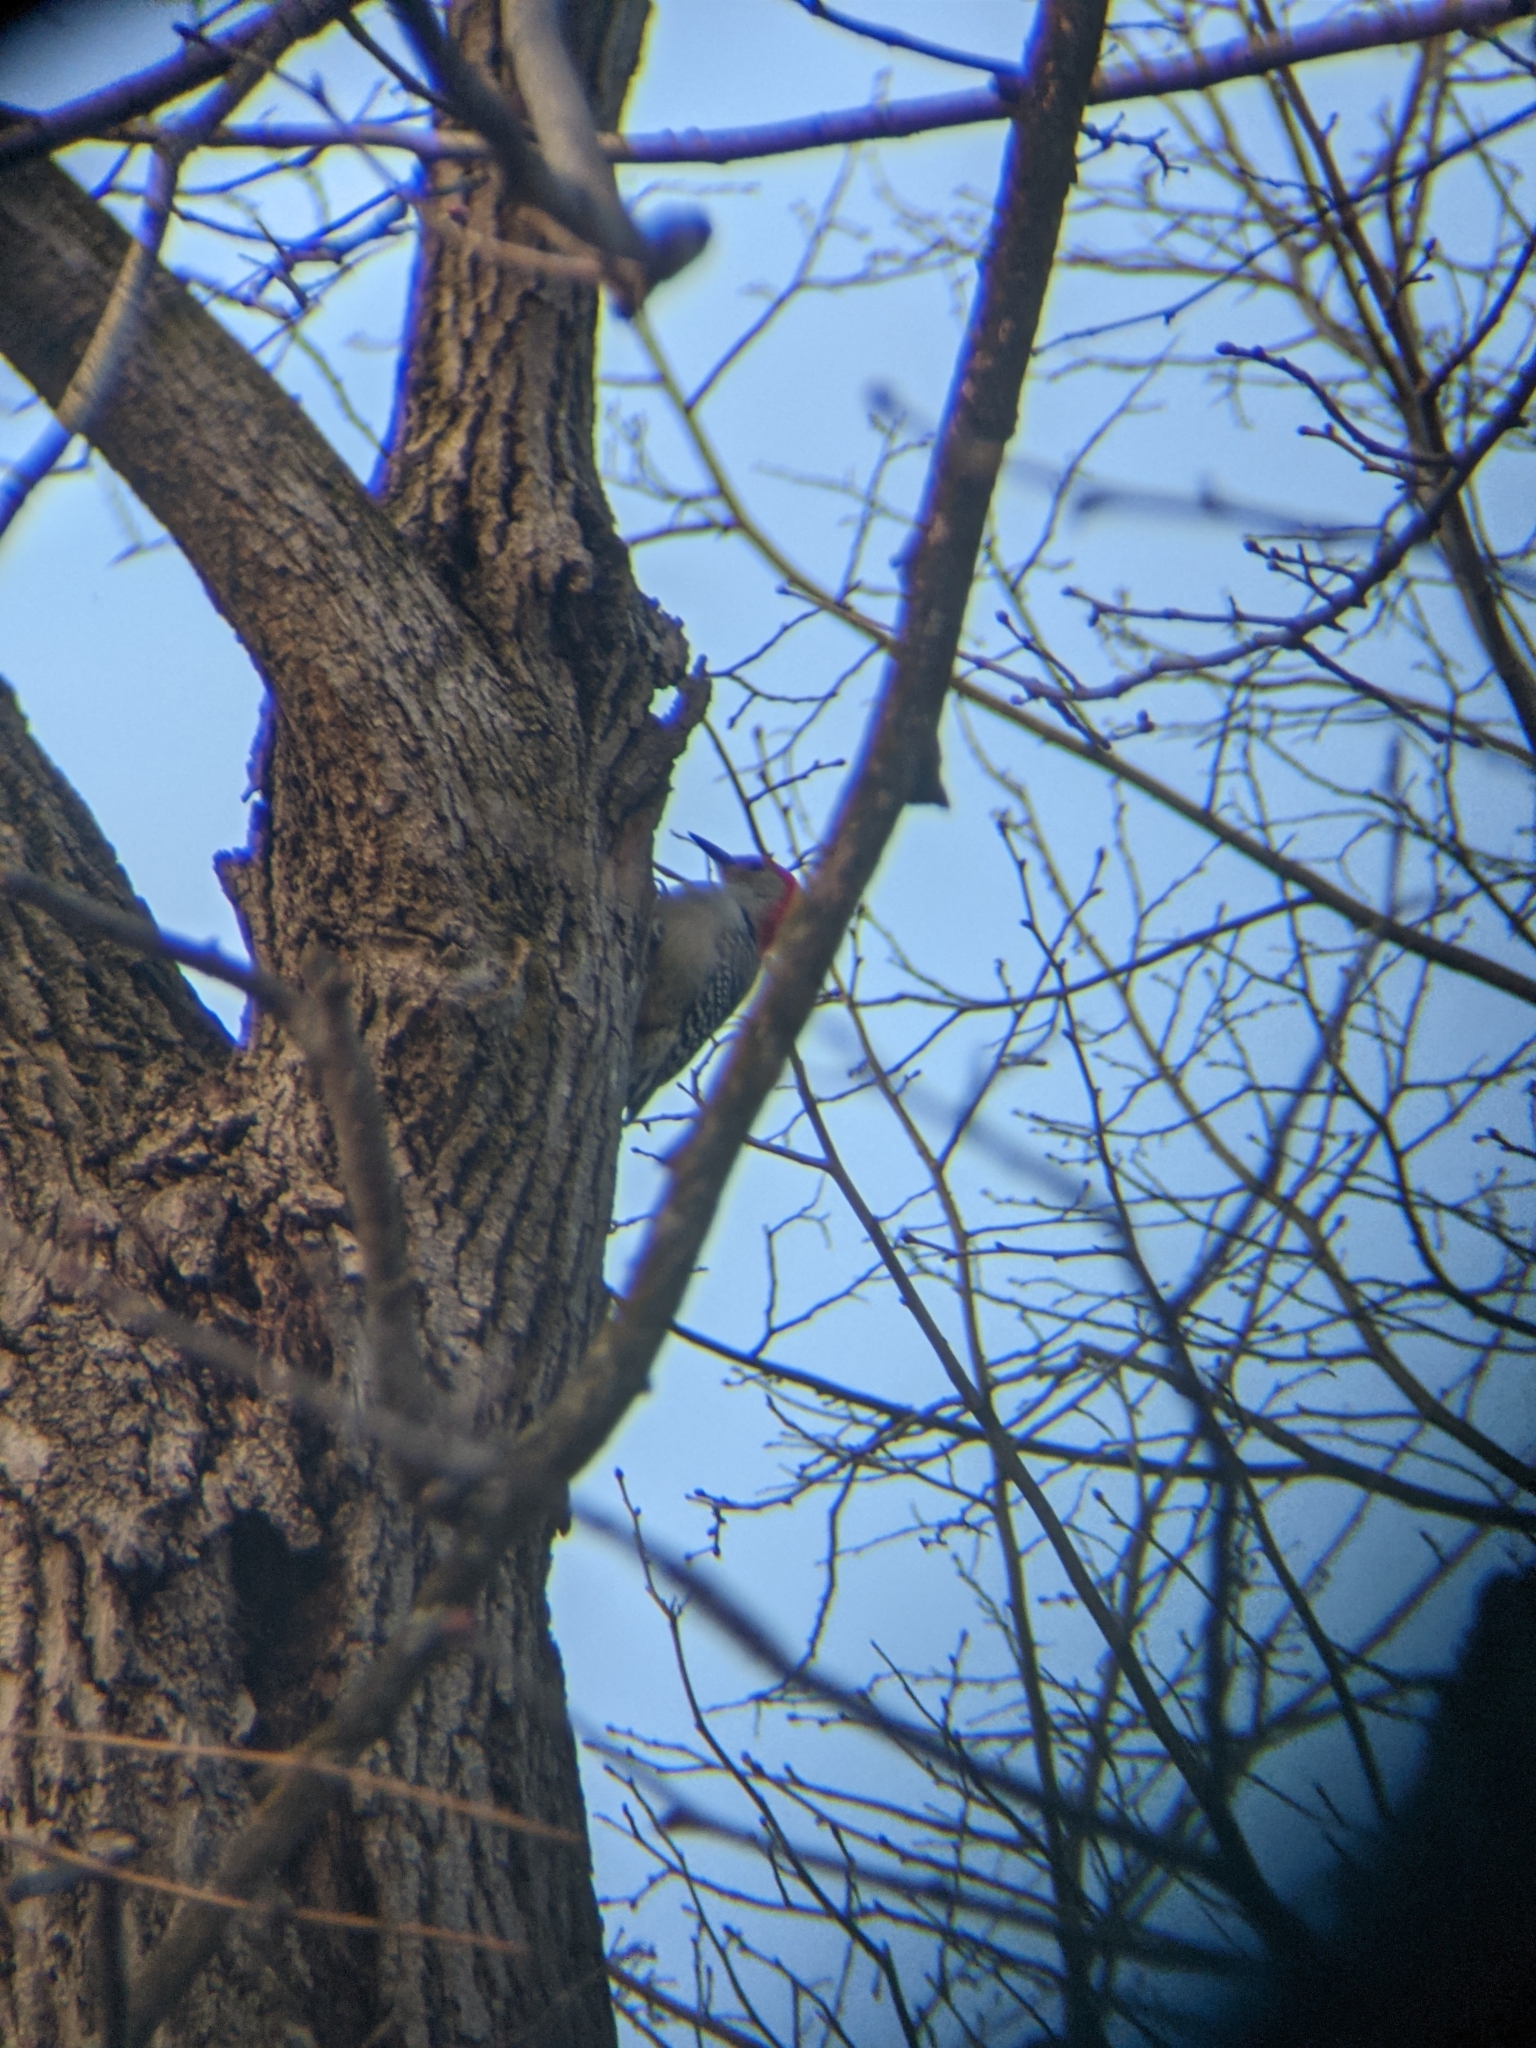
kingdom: Animalia
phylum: Chordata
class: Aves
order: Piciformes
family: Picidae
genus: Melanerpes
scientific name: Melanerpes carolinus
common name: Red-bellied woodpecker
